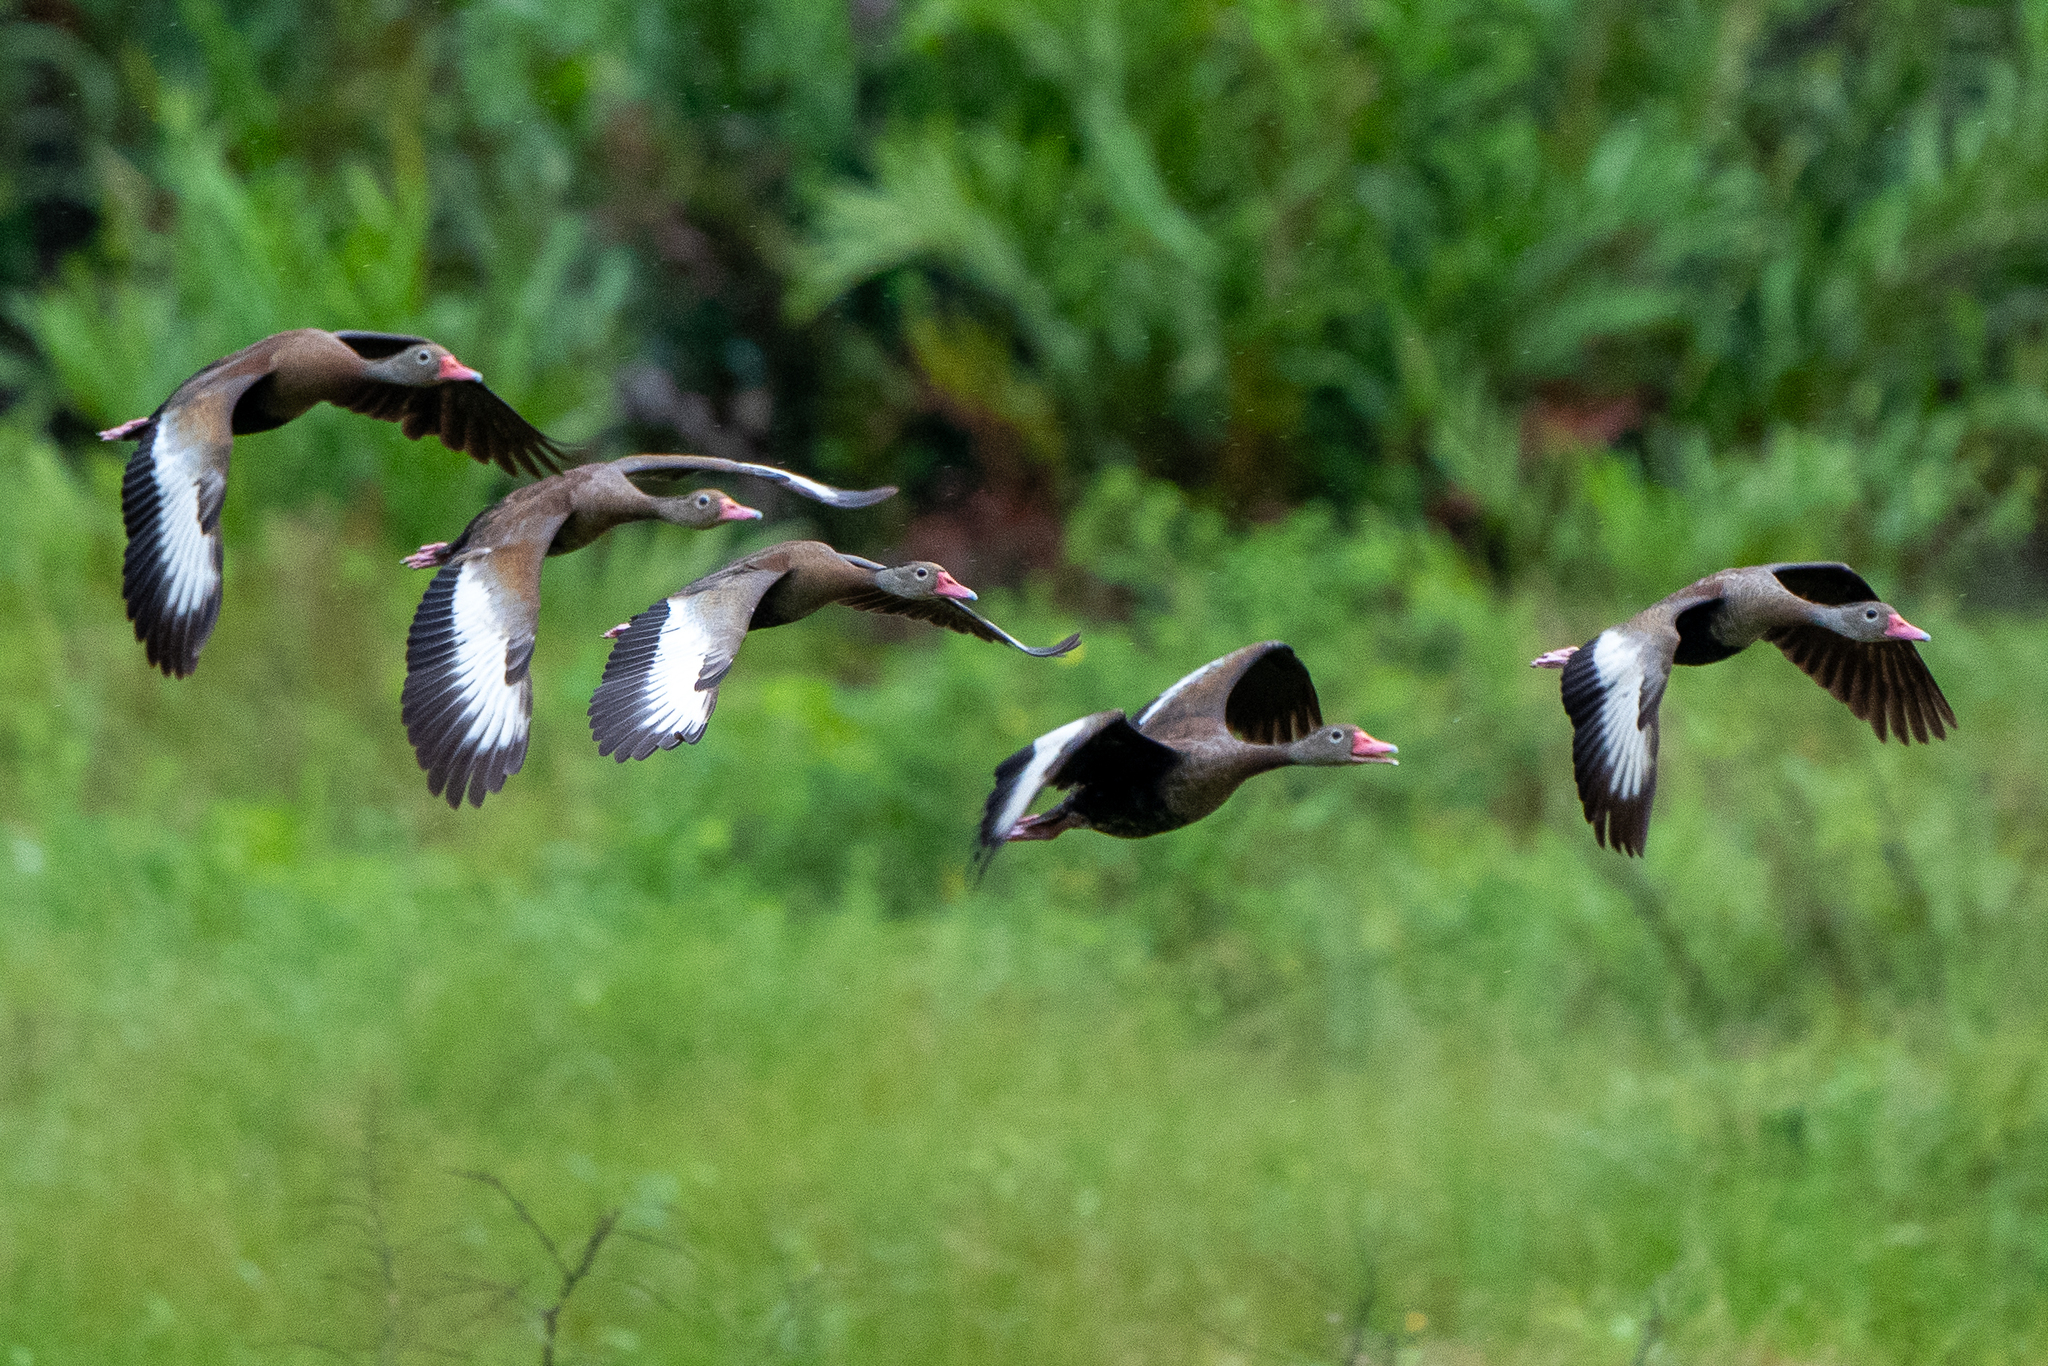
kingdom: Animalia
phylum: Chordata
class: Aves
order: Anseriformes
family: Anatidae
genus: Dendrocygna
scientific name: Dendrocygna autumnalis
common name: Black-bellied whistling duck
